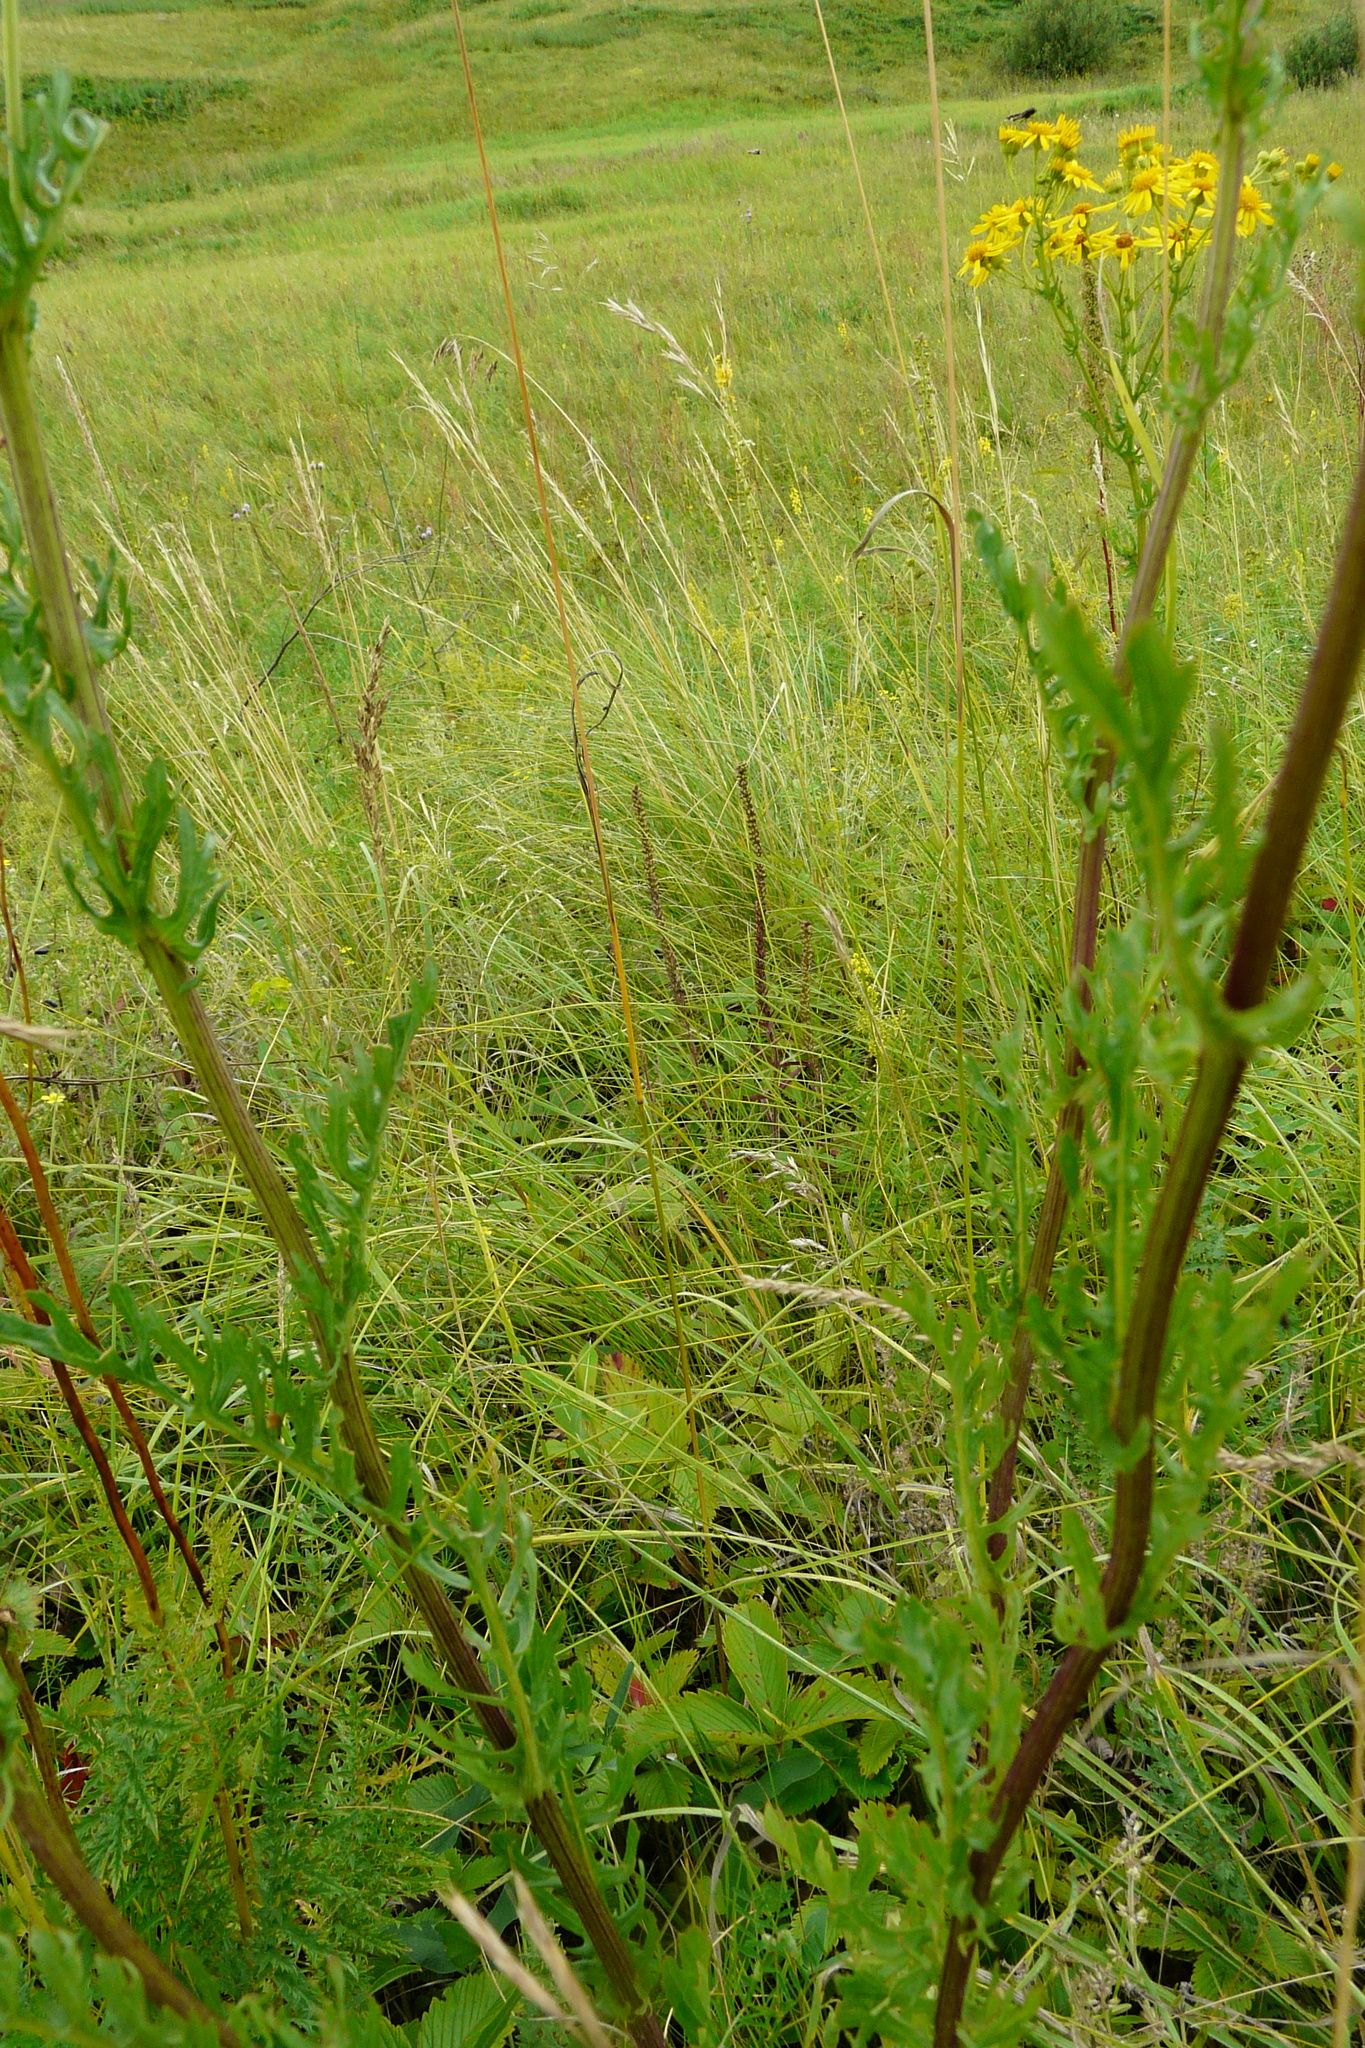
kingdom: Plantae
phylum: Tracheophyta
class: Magnoliopsida
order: Asterales
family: Asteraceae
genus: Jacobaea
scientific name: Jacobaea vulgaris
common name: Stinking willie
